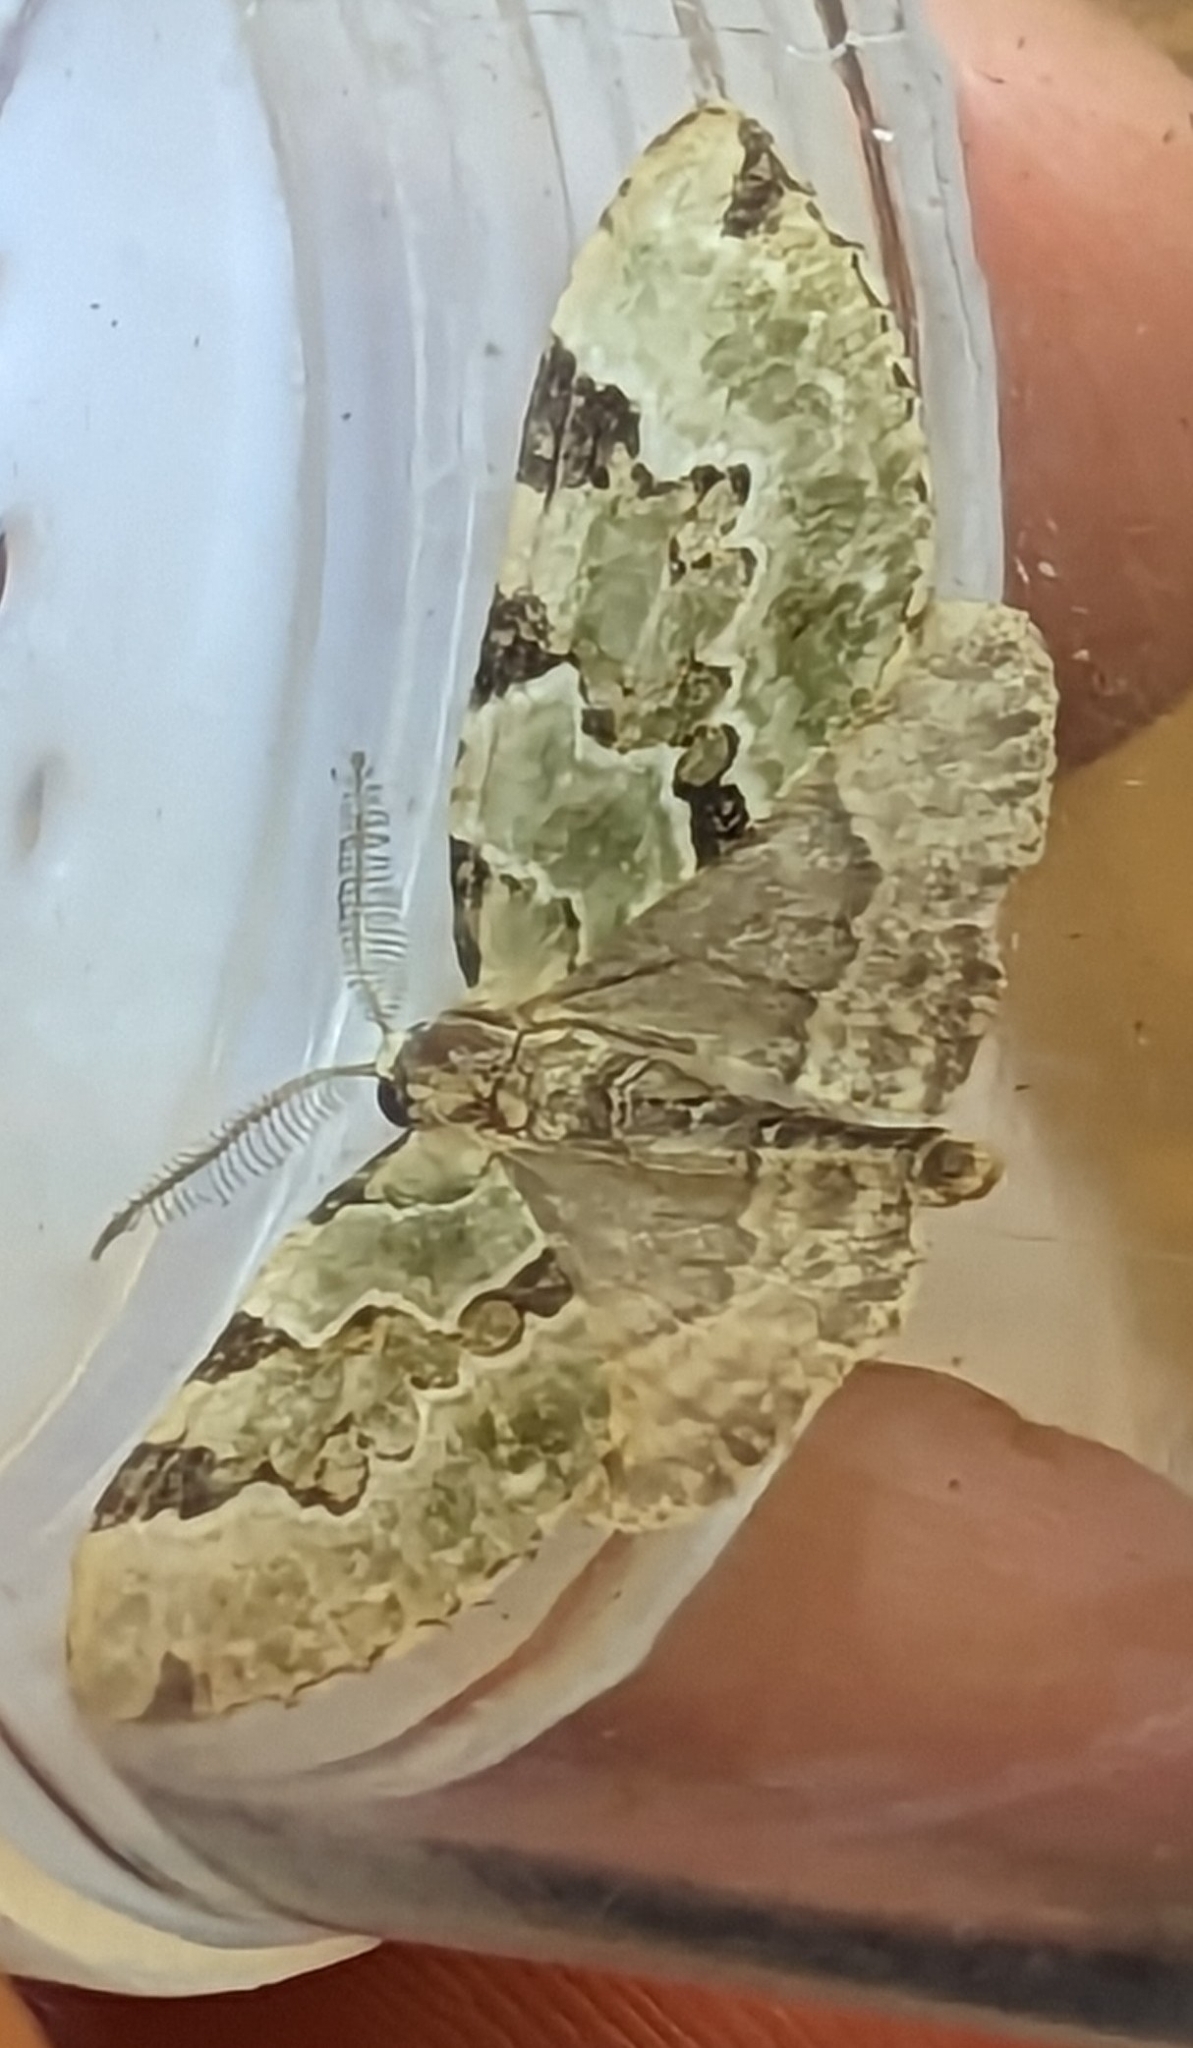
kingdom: Animalia
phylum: Arthropoda
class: Insecta
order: Lepidoptera
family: Geometridae
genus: Colostygia
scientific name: Colostygia pectinataria
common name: Green carpet
